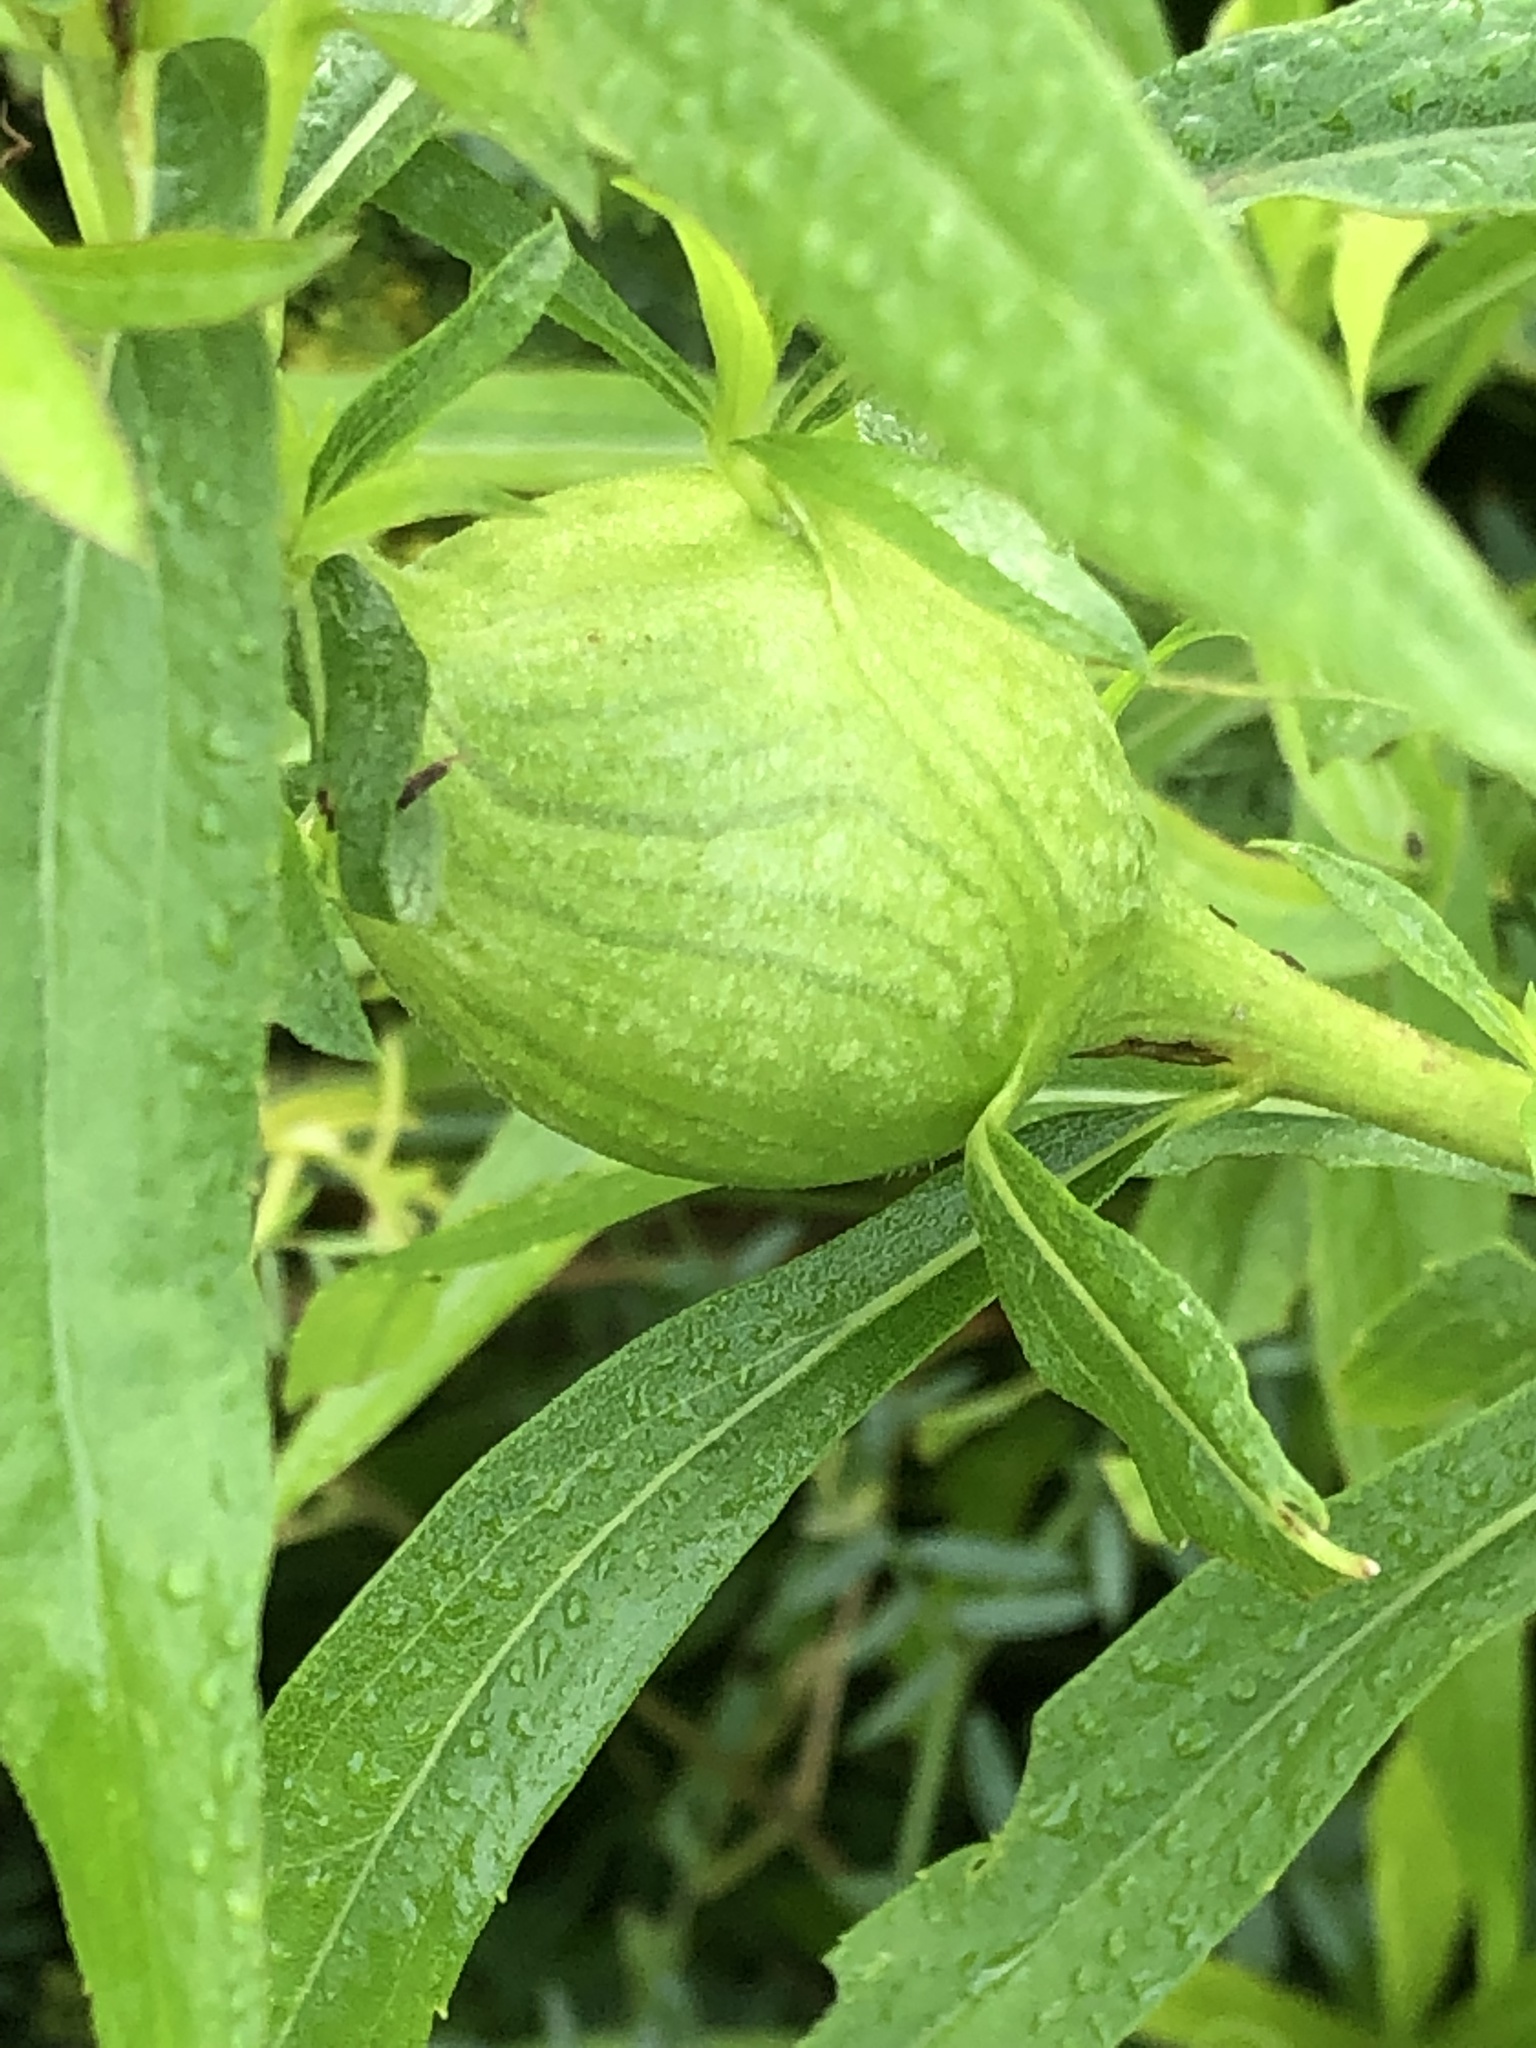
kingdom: Animalia
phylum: Arthropoda
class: Insecta
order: Diptera
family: Tephritidae
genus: Eurosta
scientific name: Eurosta solidaginis
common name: Goldenrod gall fly
